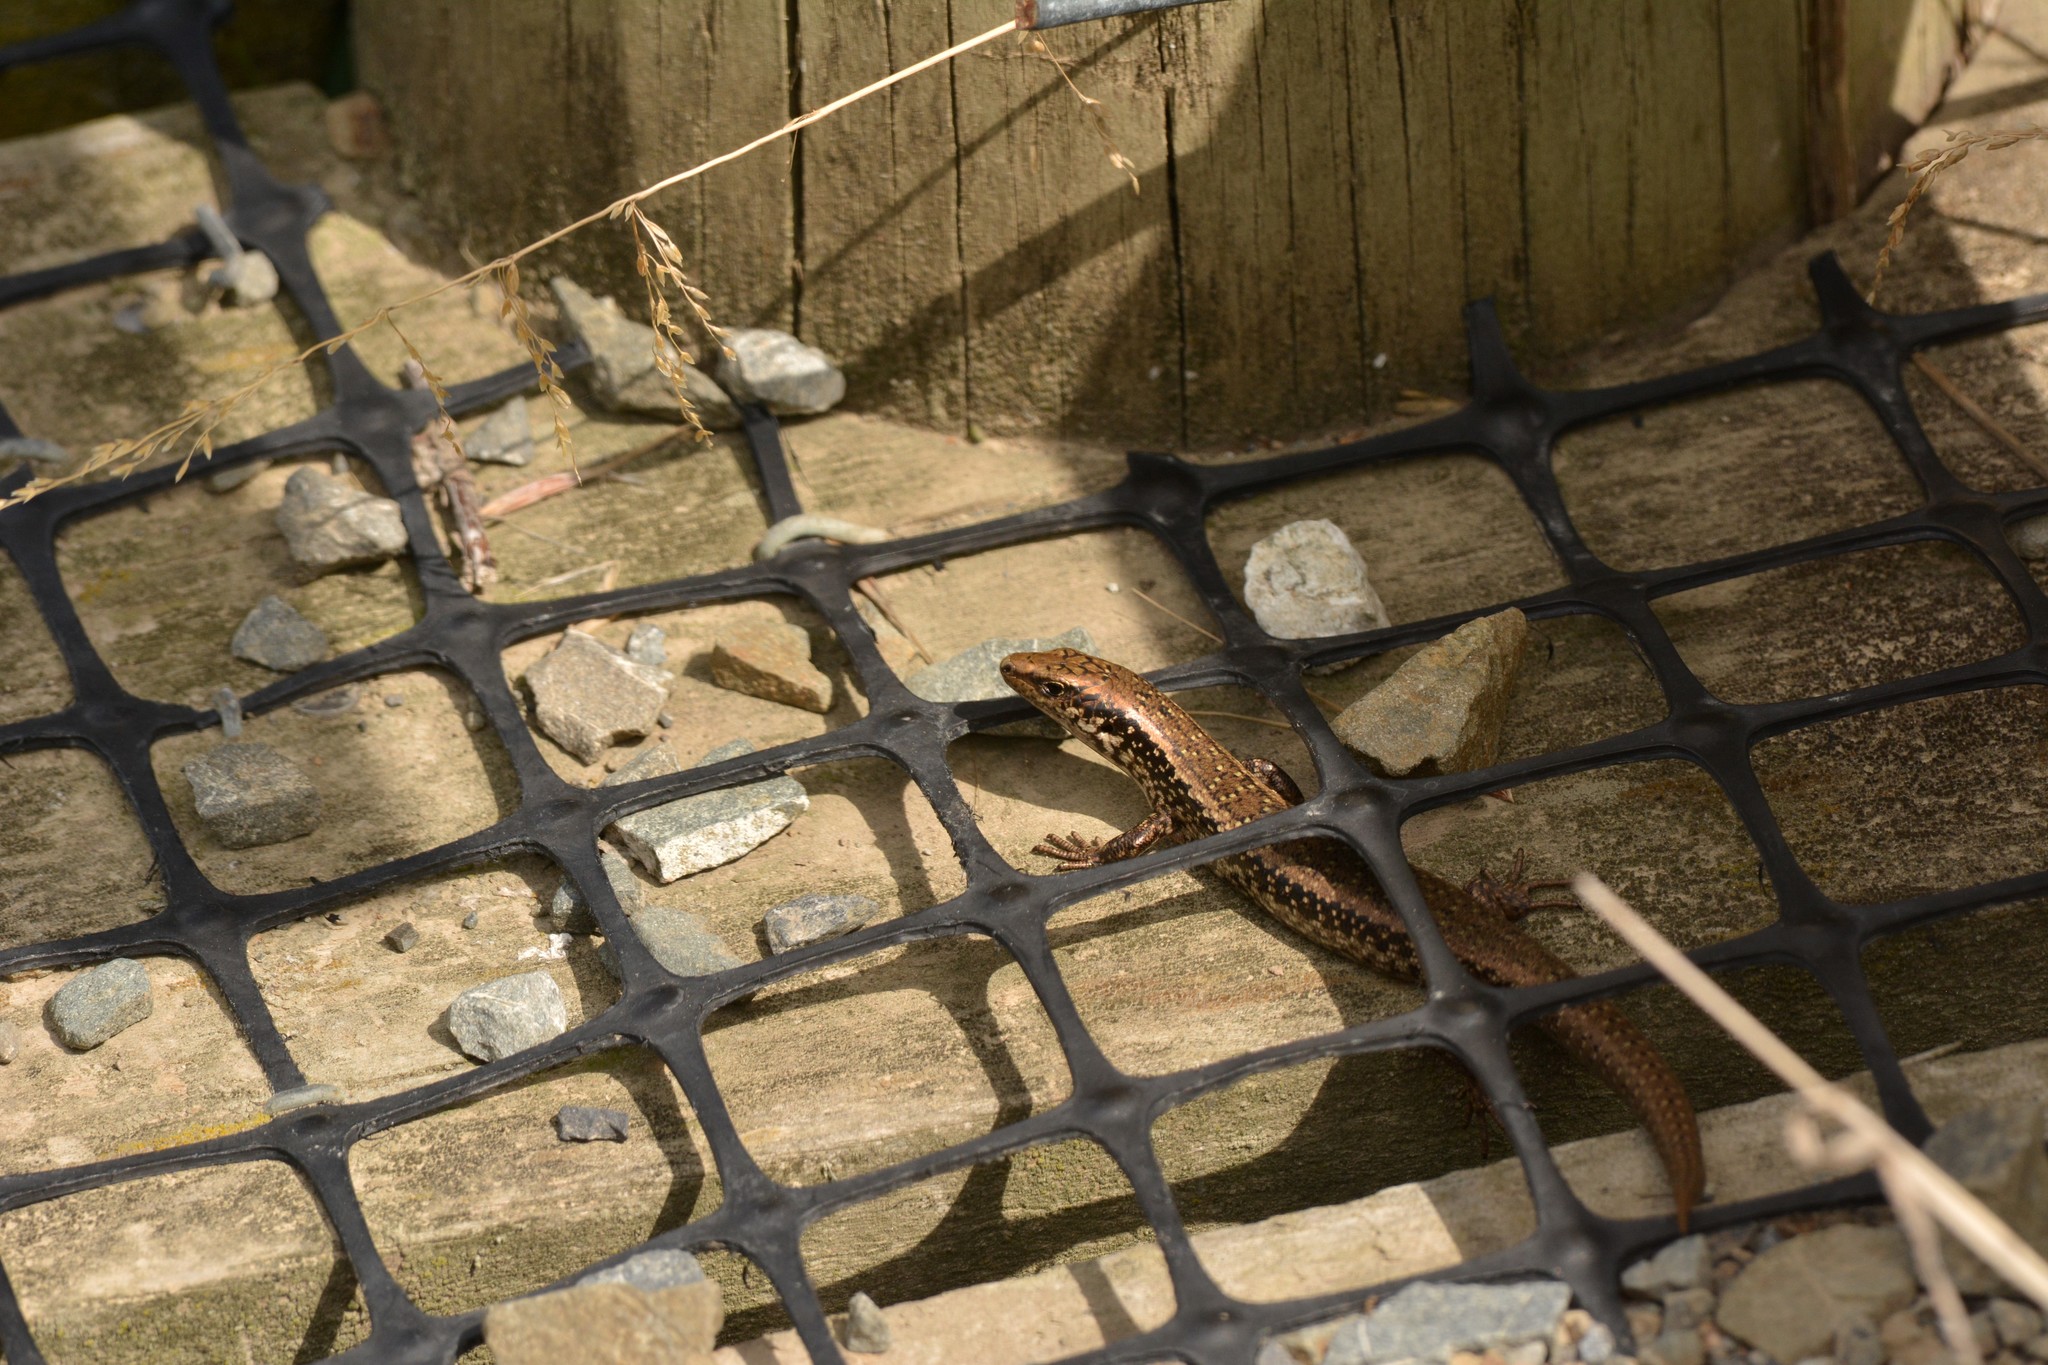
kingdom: Animalia
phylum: Chordata
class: Squamata
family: Scincidae
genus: Oligosoma
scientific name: Oligosoma kokowai
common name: Northern spotted skink
